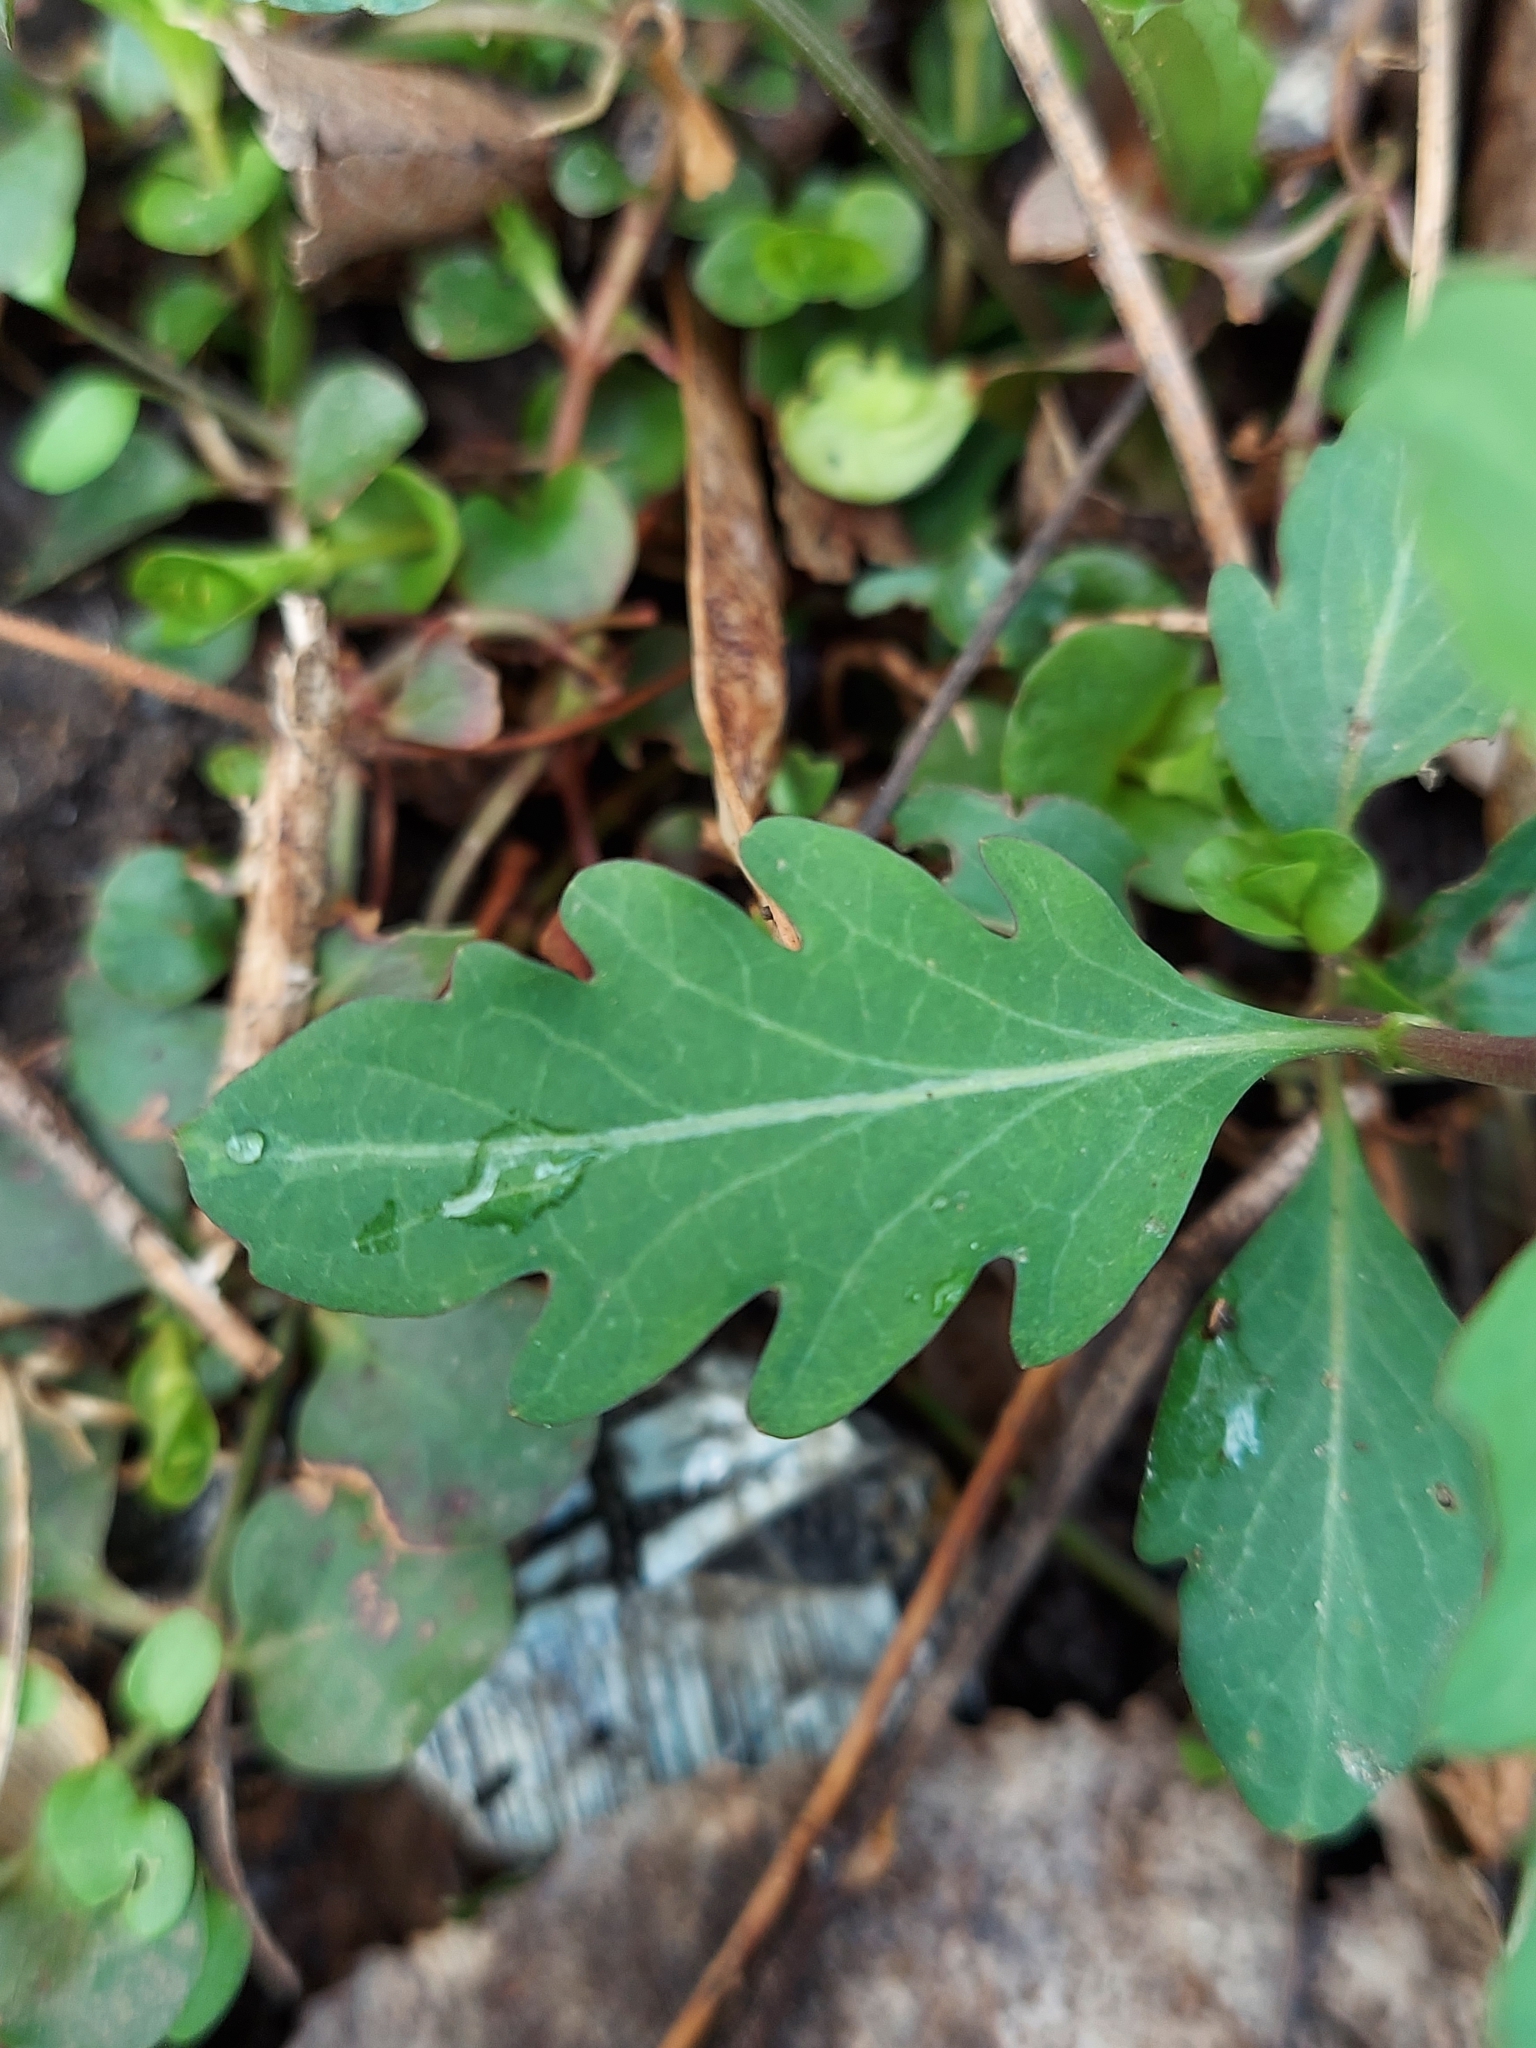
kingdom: Plantae
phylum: Tracheophyta
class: Magnoliopsida
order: Dipsacales
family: Caprifoliaceae
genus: Lonicera
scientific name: Lonicera japonica
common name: Japanese honeysuckle
